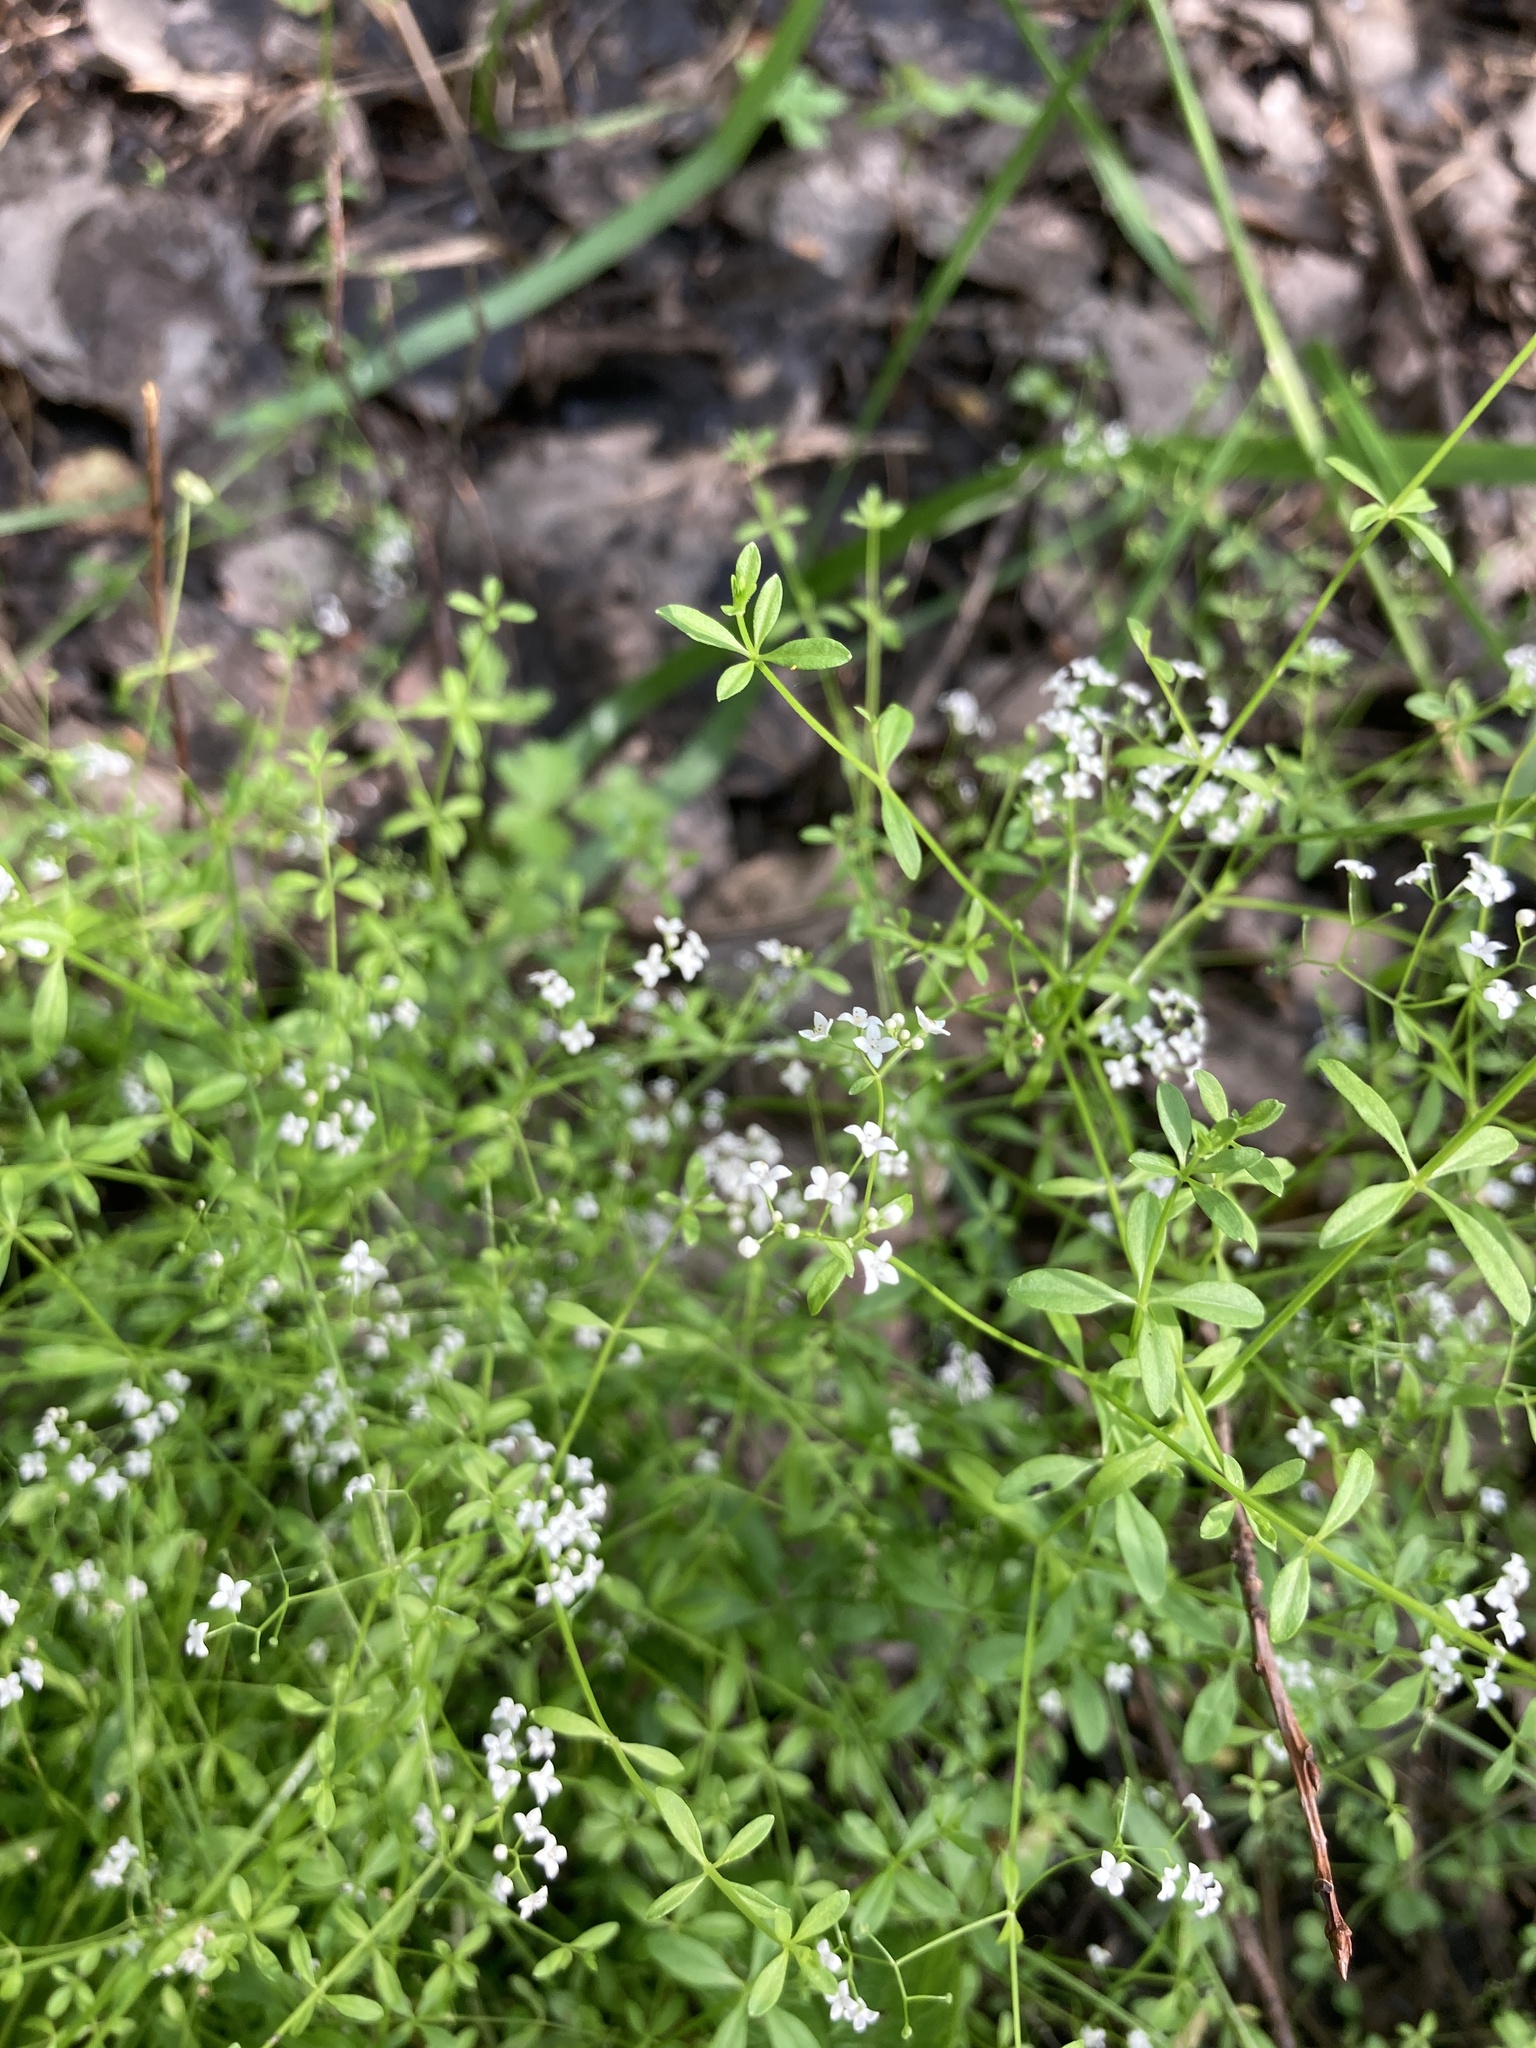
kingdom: Plantae
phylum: Tracheophyta
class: Magnoliopsida
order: Gentianales
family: Rubiaceae
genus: Galium
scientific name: Galium palustre
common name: Common marsh-bedstraw
